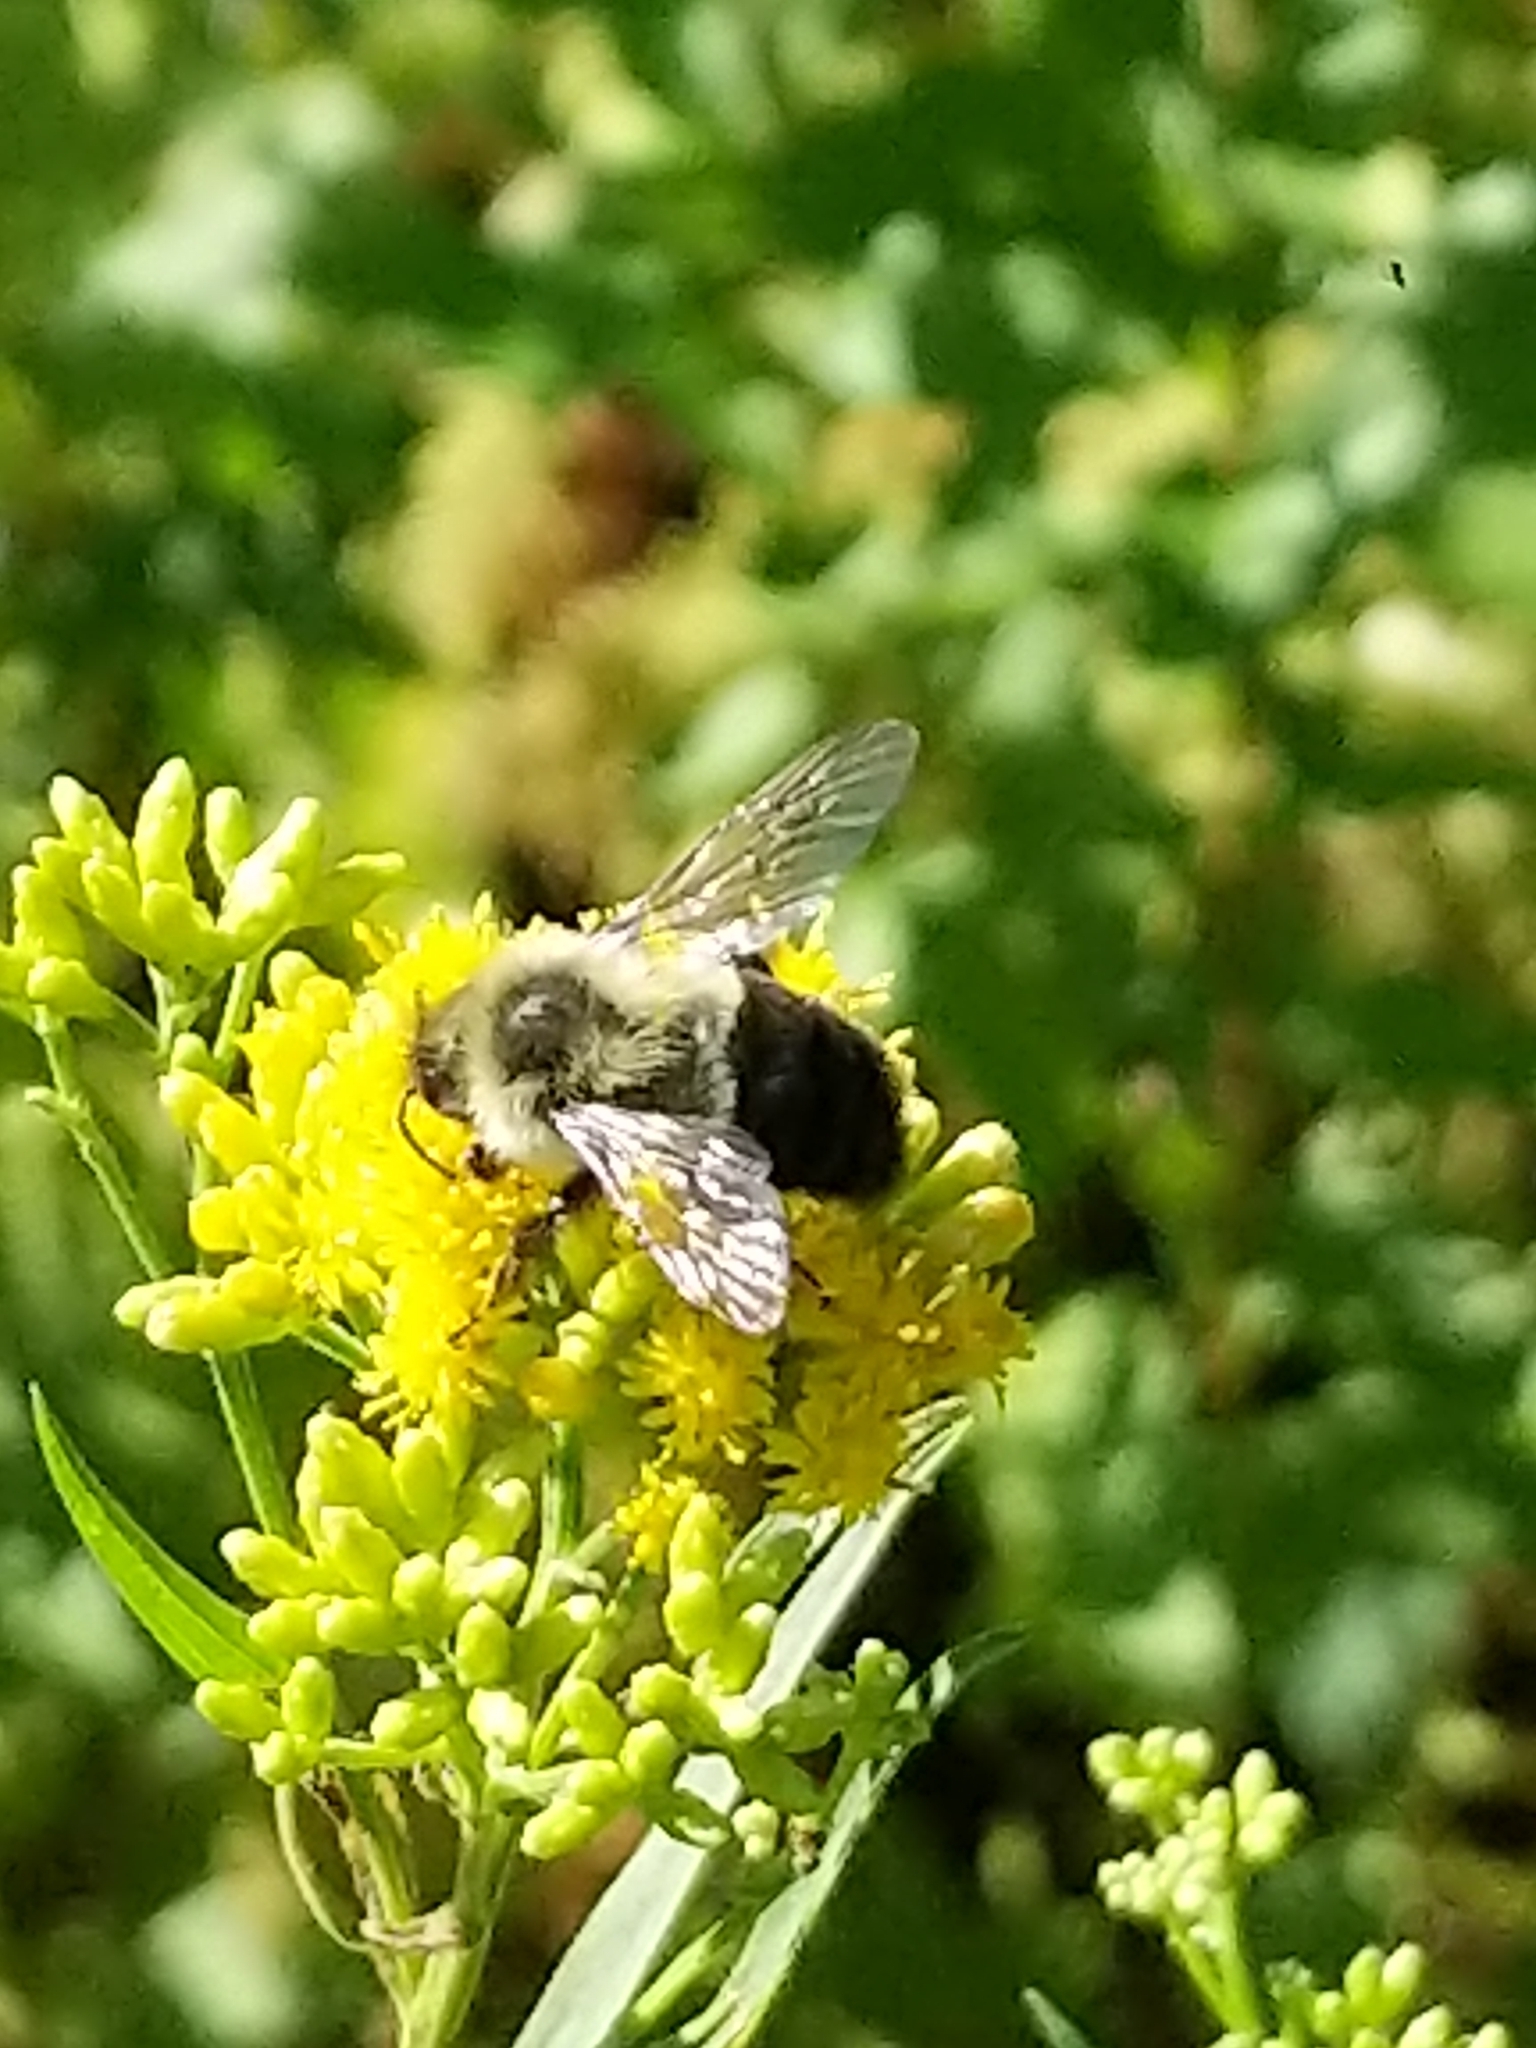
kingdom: Animalia
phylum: Arthropoda
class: Insecta
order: Hymenoptera
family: Apidae
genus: Bombus
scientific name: Bombus impatiens
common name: Common eastern bumble bee
